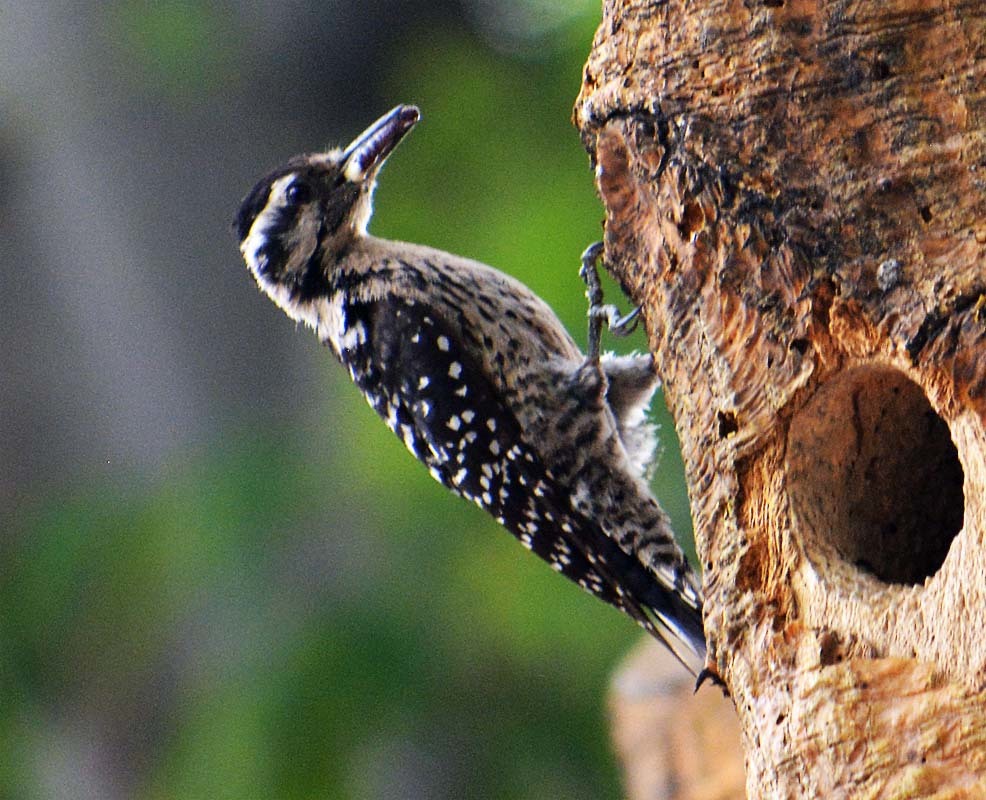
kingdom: Animalia
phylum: Chordata
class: Aves
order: Piciformes
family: Picidae
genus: Dryobates
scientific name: Dryobates scalaris
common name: Ladder-backed woodpecker
